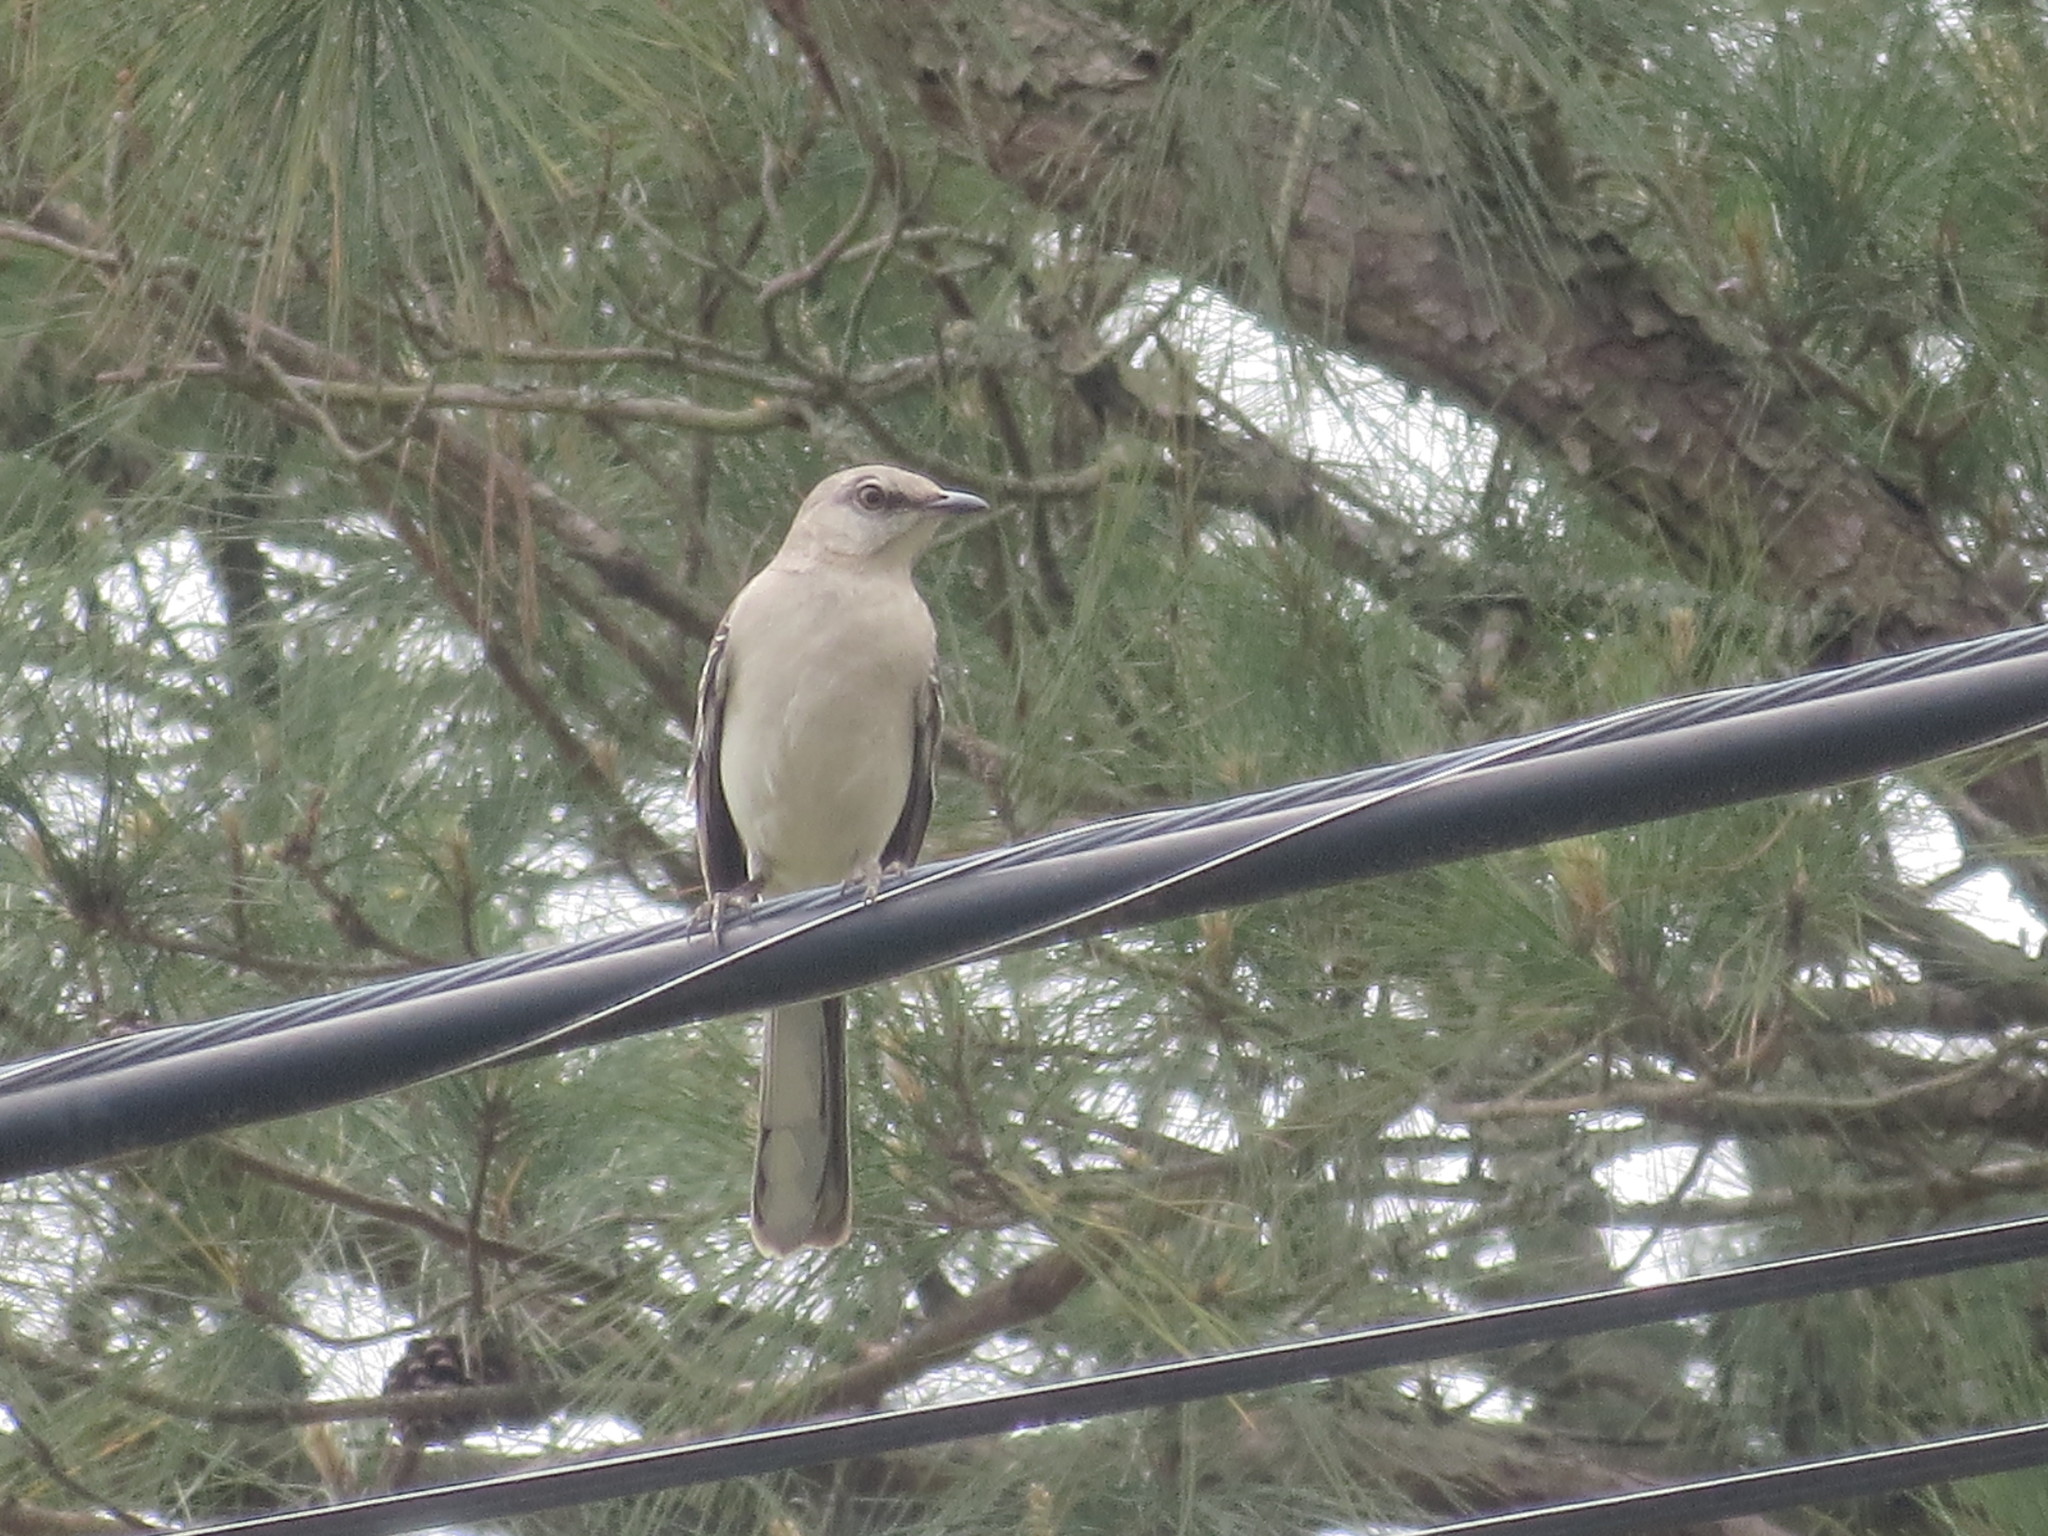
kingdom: Animalia
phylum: Chordata
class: Aves
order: Passeriformes
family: Mimidae
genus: Mimus
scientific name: Mimus polyglottos
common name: Northern mockingbird
